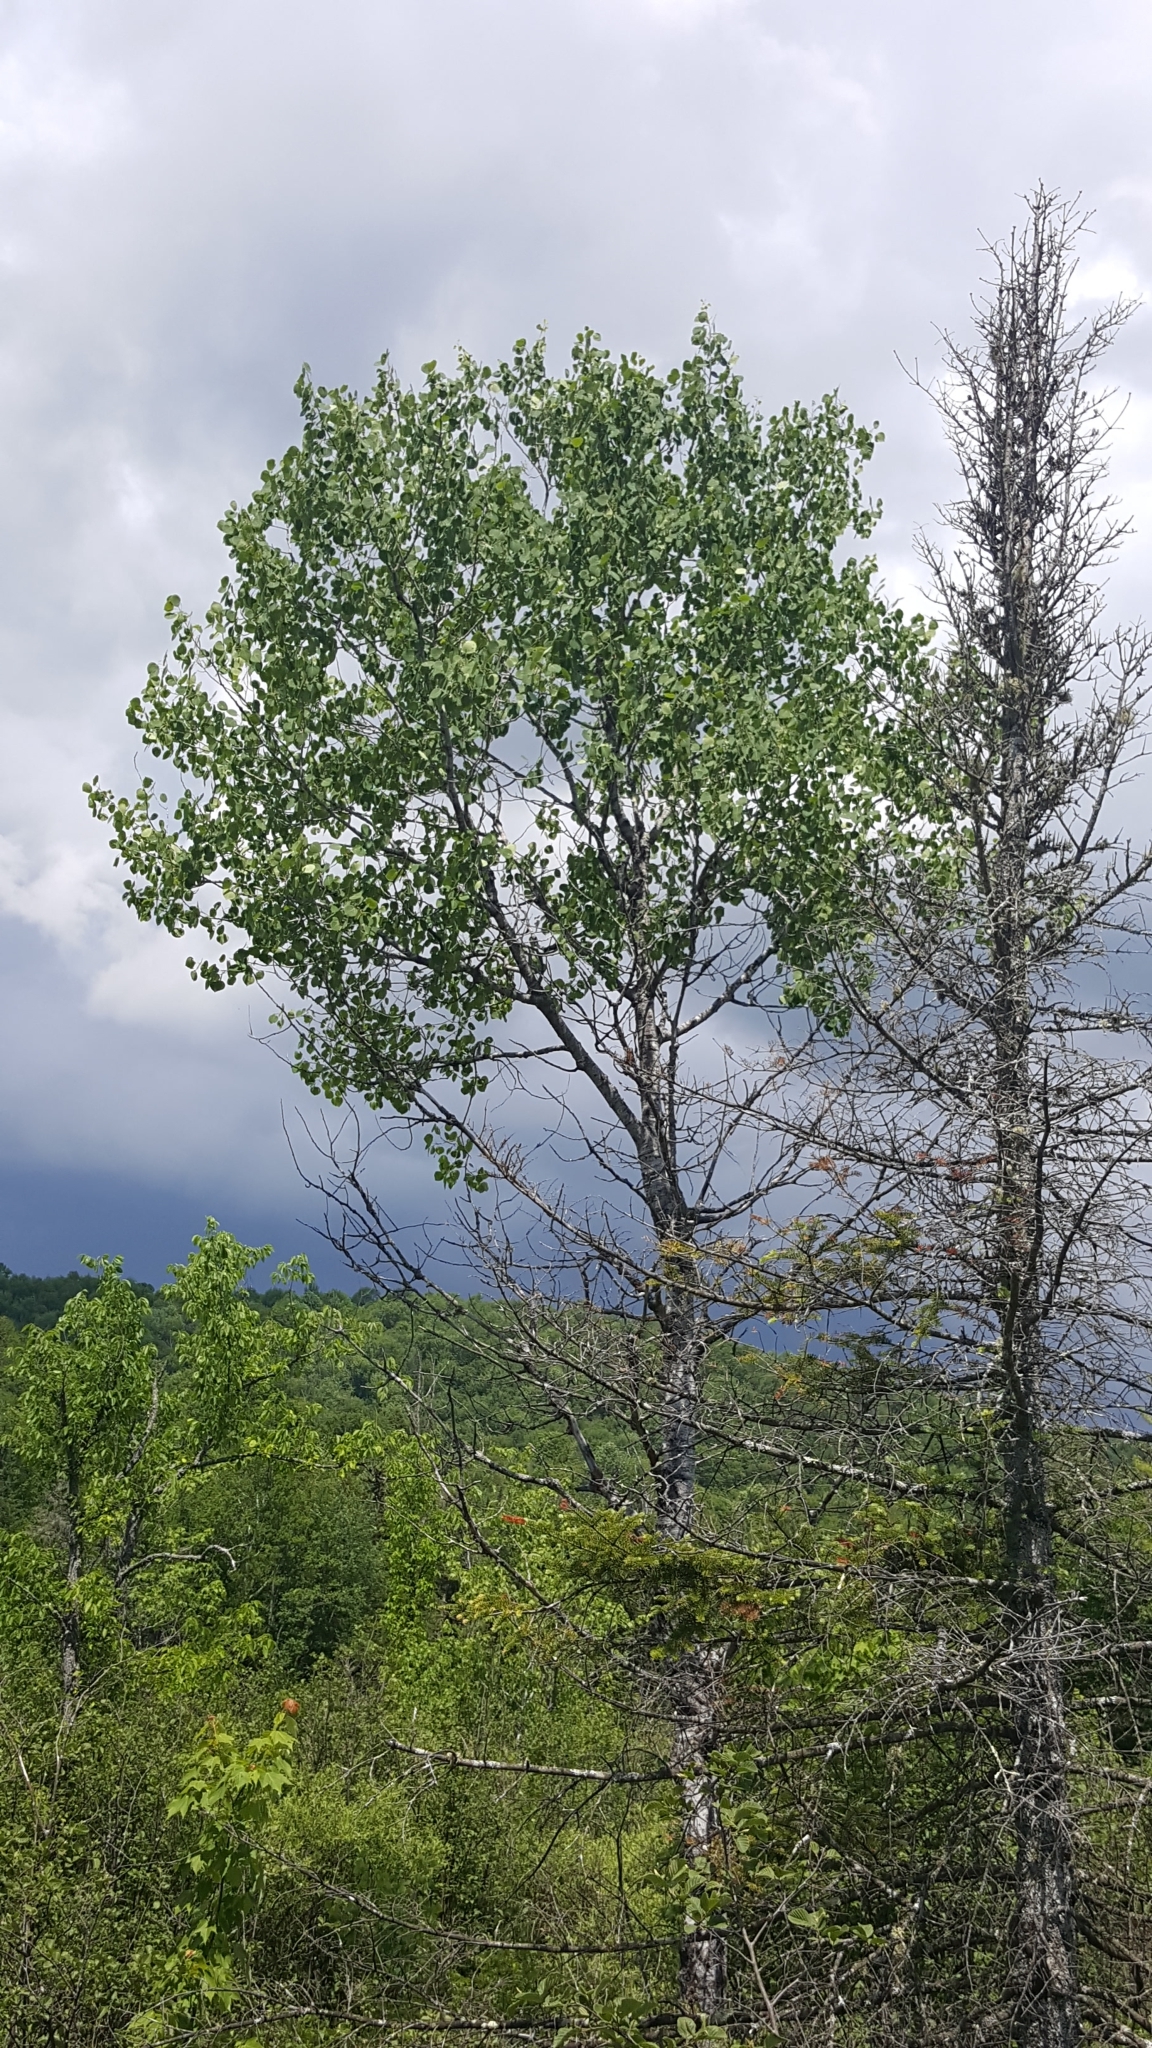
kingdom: Plantae
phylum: Tracheophyta
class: Magnoliopsida
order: Malpighiales
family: Salicaceae
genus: Populus
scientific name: Populus tremuloides
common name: Quaking aspen
